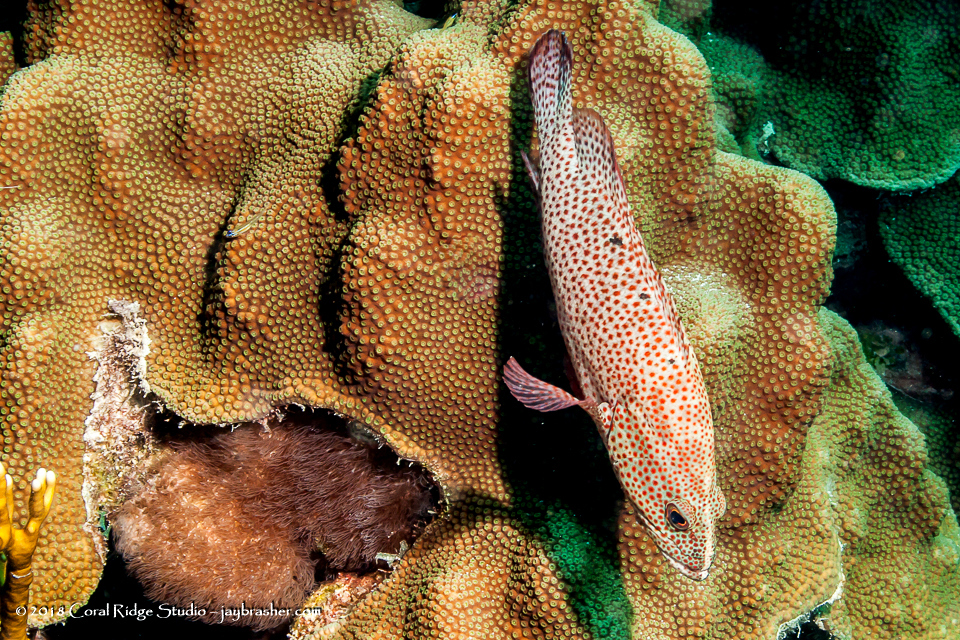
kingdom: Animalia
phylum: Chordata
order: Perciformes
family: Serranidae
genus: Cephalopholis
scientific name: Cephalopholis cruentata
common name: Graysby
